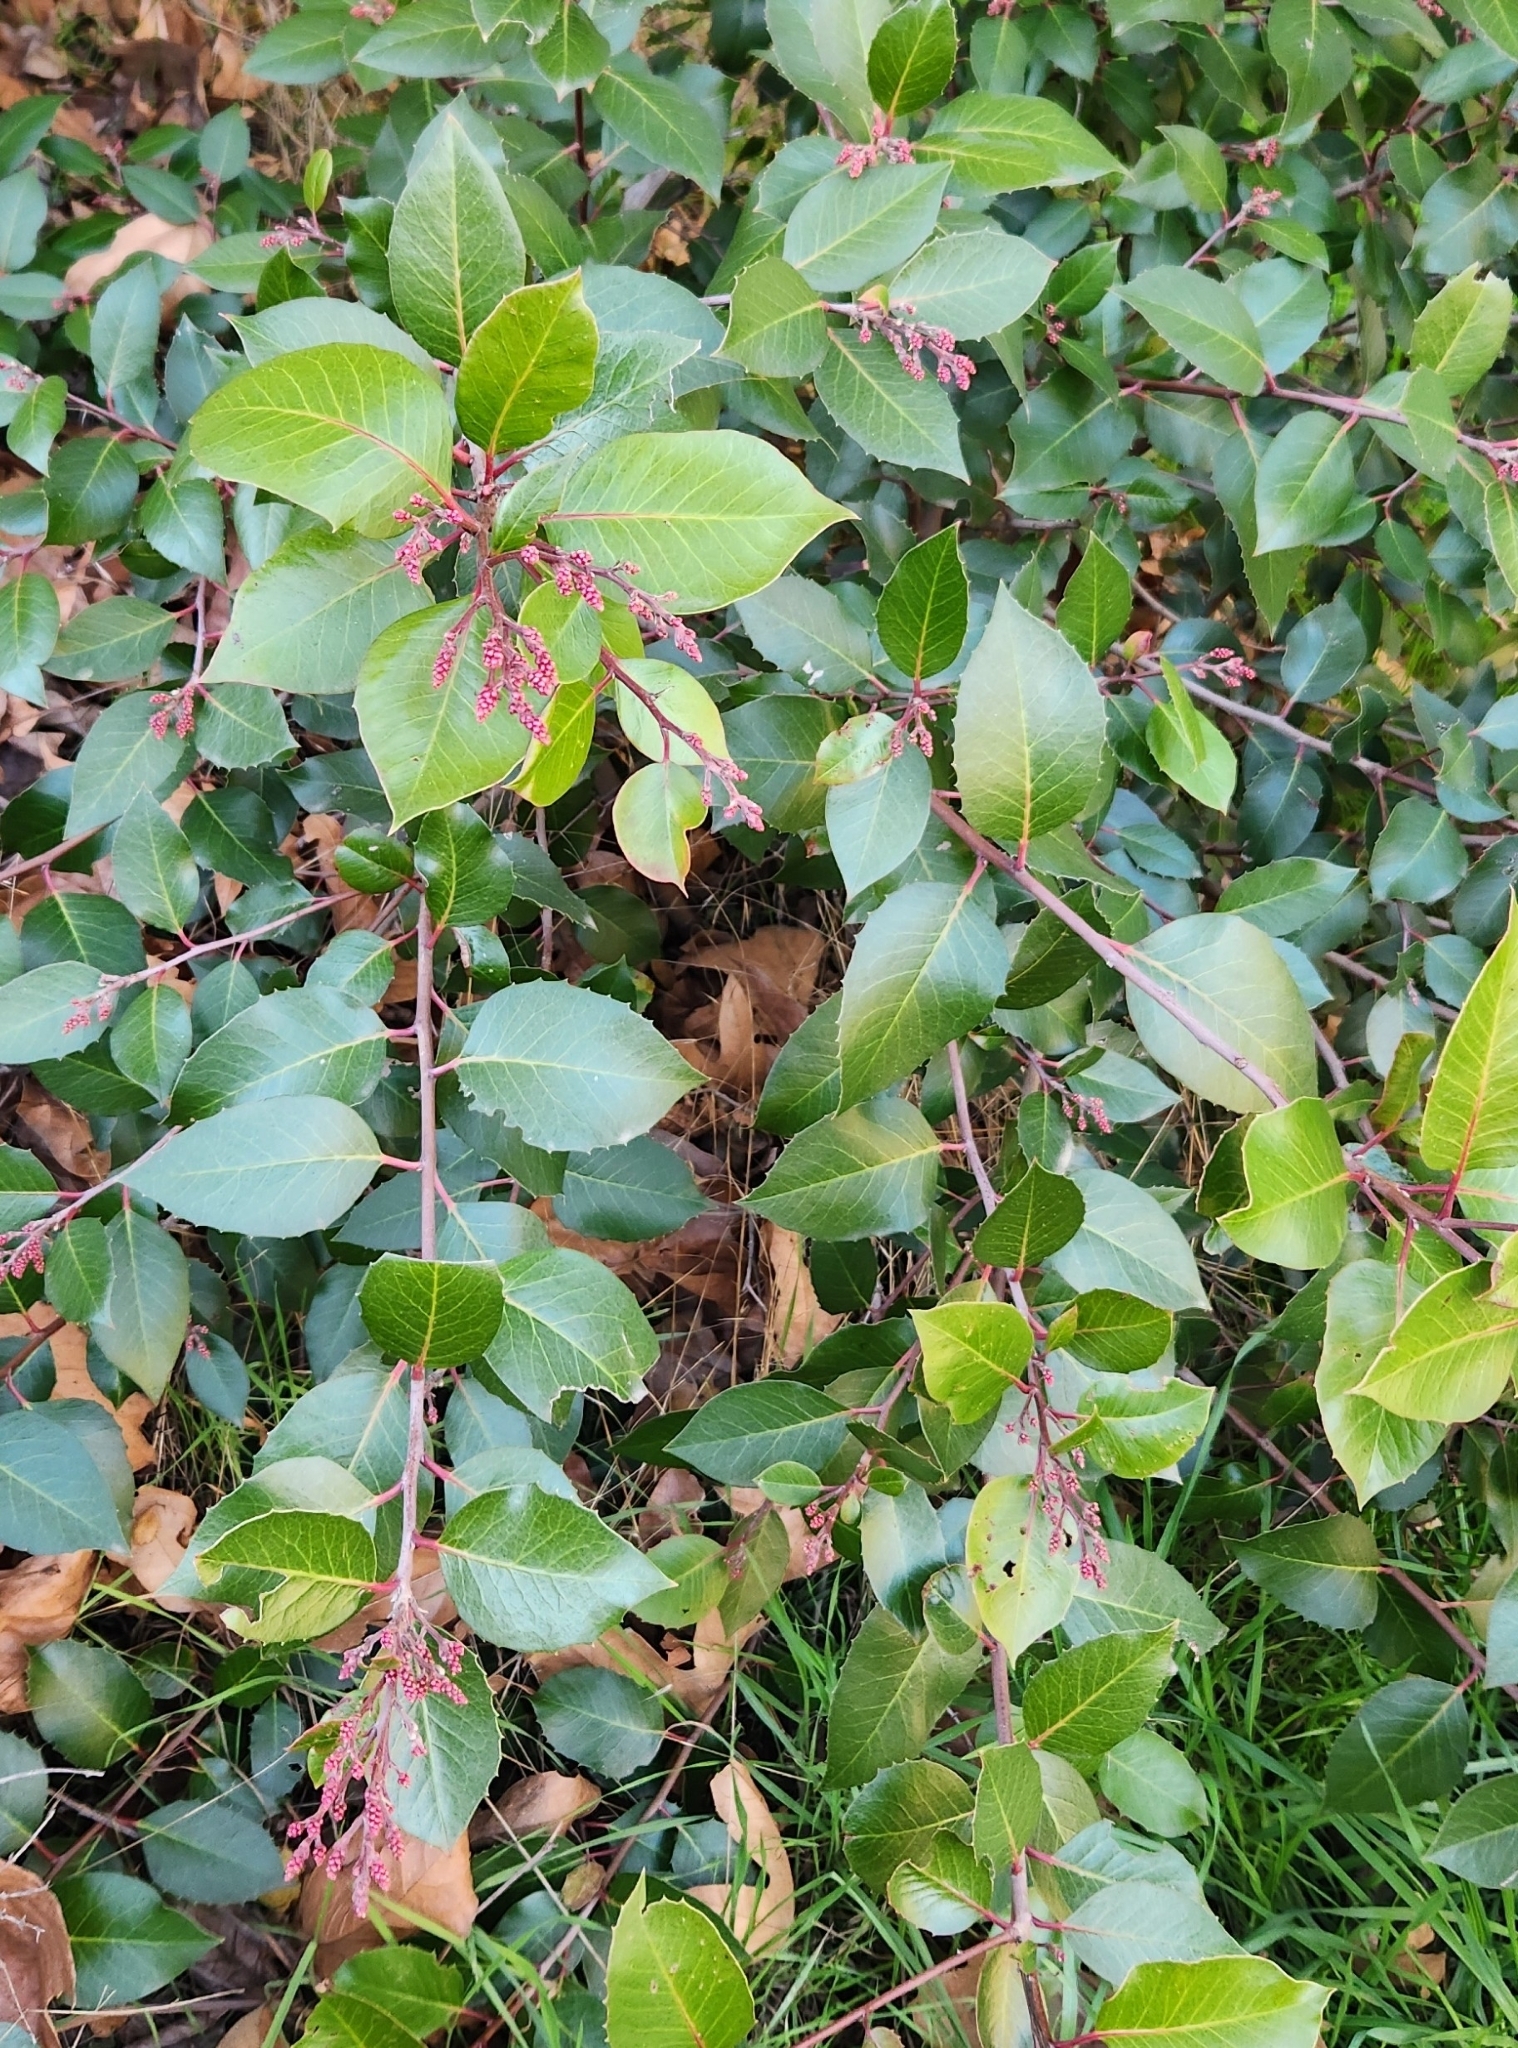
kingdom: Plantae
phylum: Tracheophyta
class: Magnoliopsida
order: Sapindales
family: Anacardiaceae
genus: Rhus
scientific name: Rhus ovata
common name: Sugar sumac
